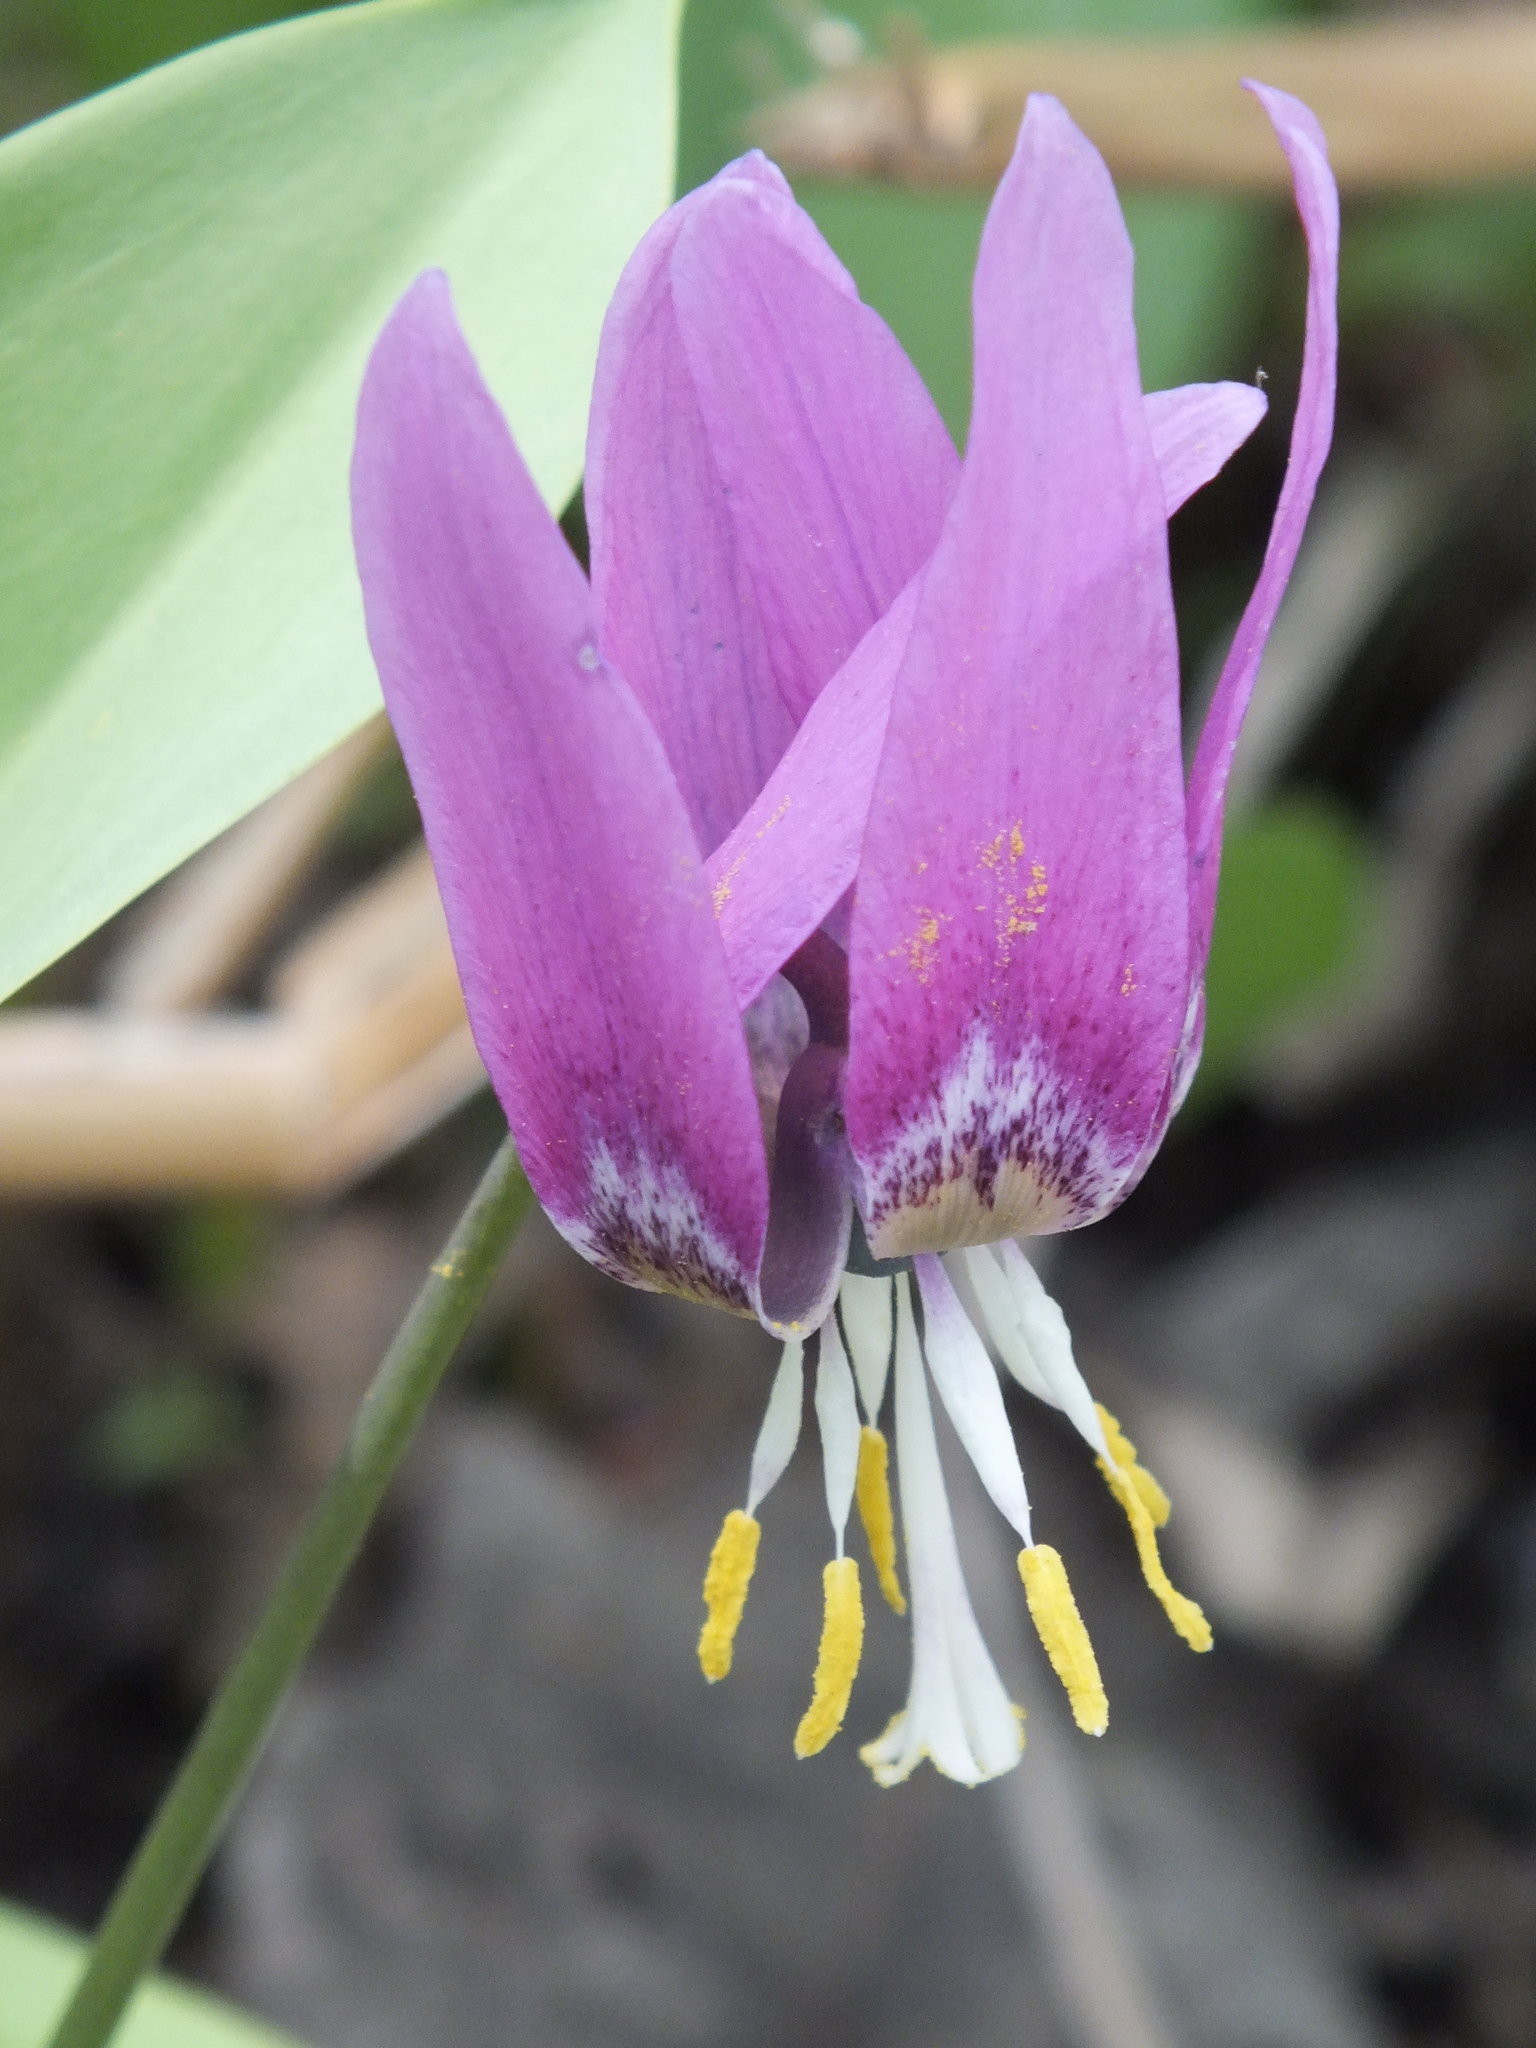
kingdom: Plantae
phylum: Tracheophyta
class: Liliopsida
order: Liliales
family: Liliaceae
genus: Erythronium
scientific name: Erythronium sibiricum
